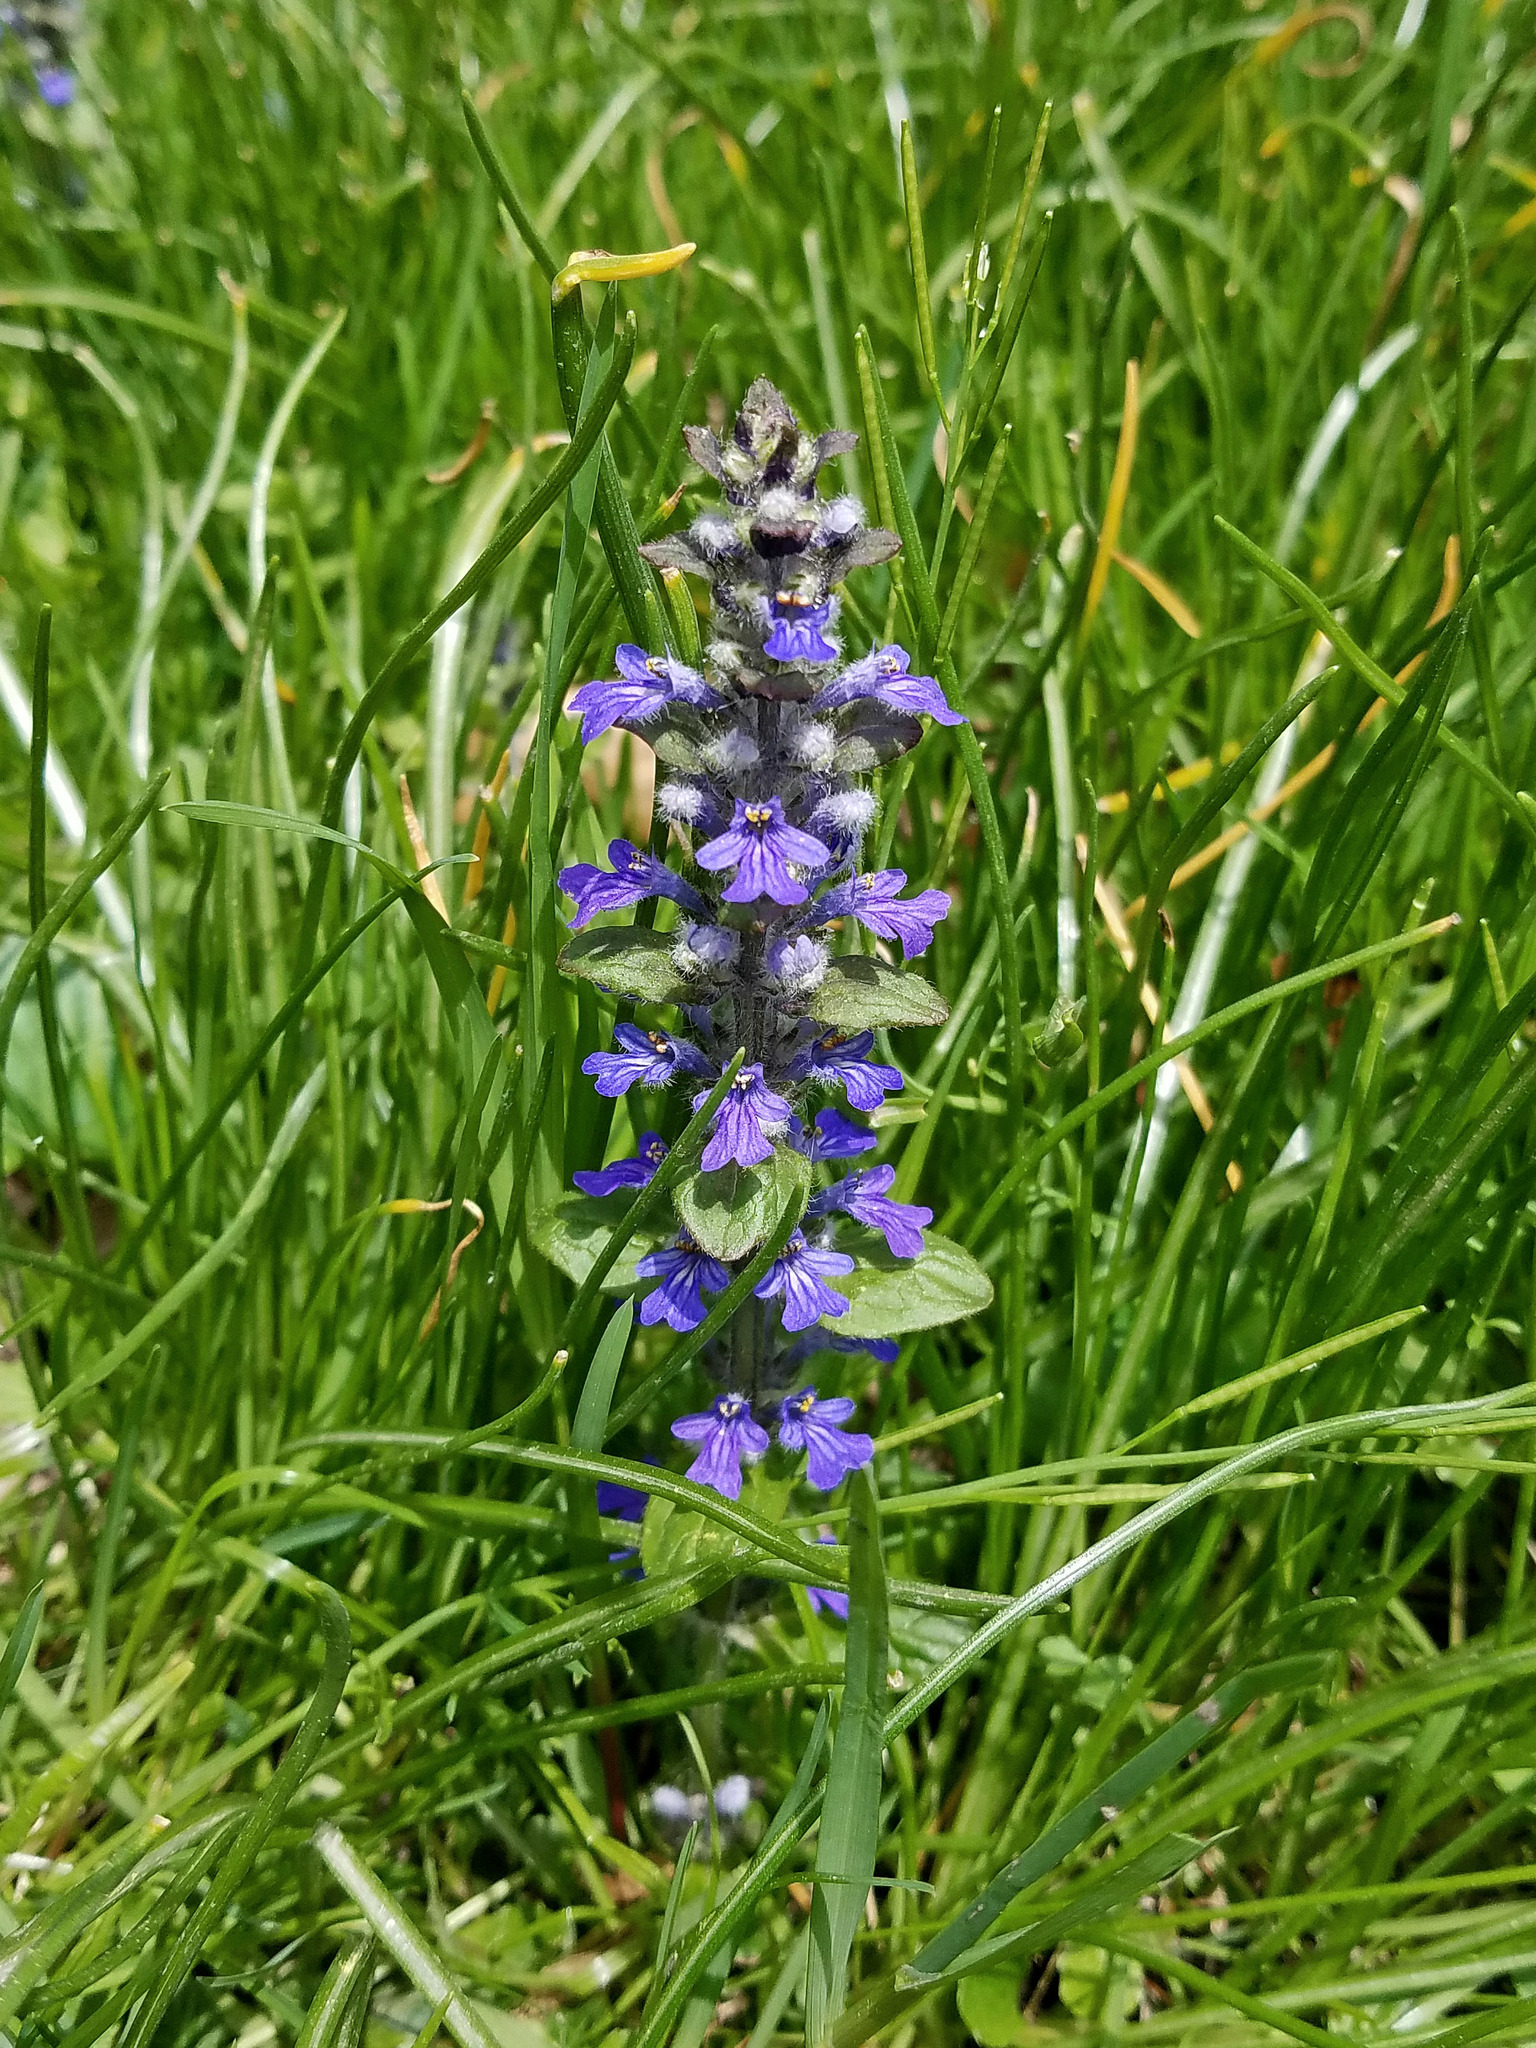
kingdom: Plantae
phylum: Tracheophyta
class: Magnoliopsida
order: Lamiales
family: Lamiaceae
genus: Ajuga
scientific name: Ajuga reptans
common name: Bugle
